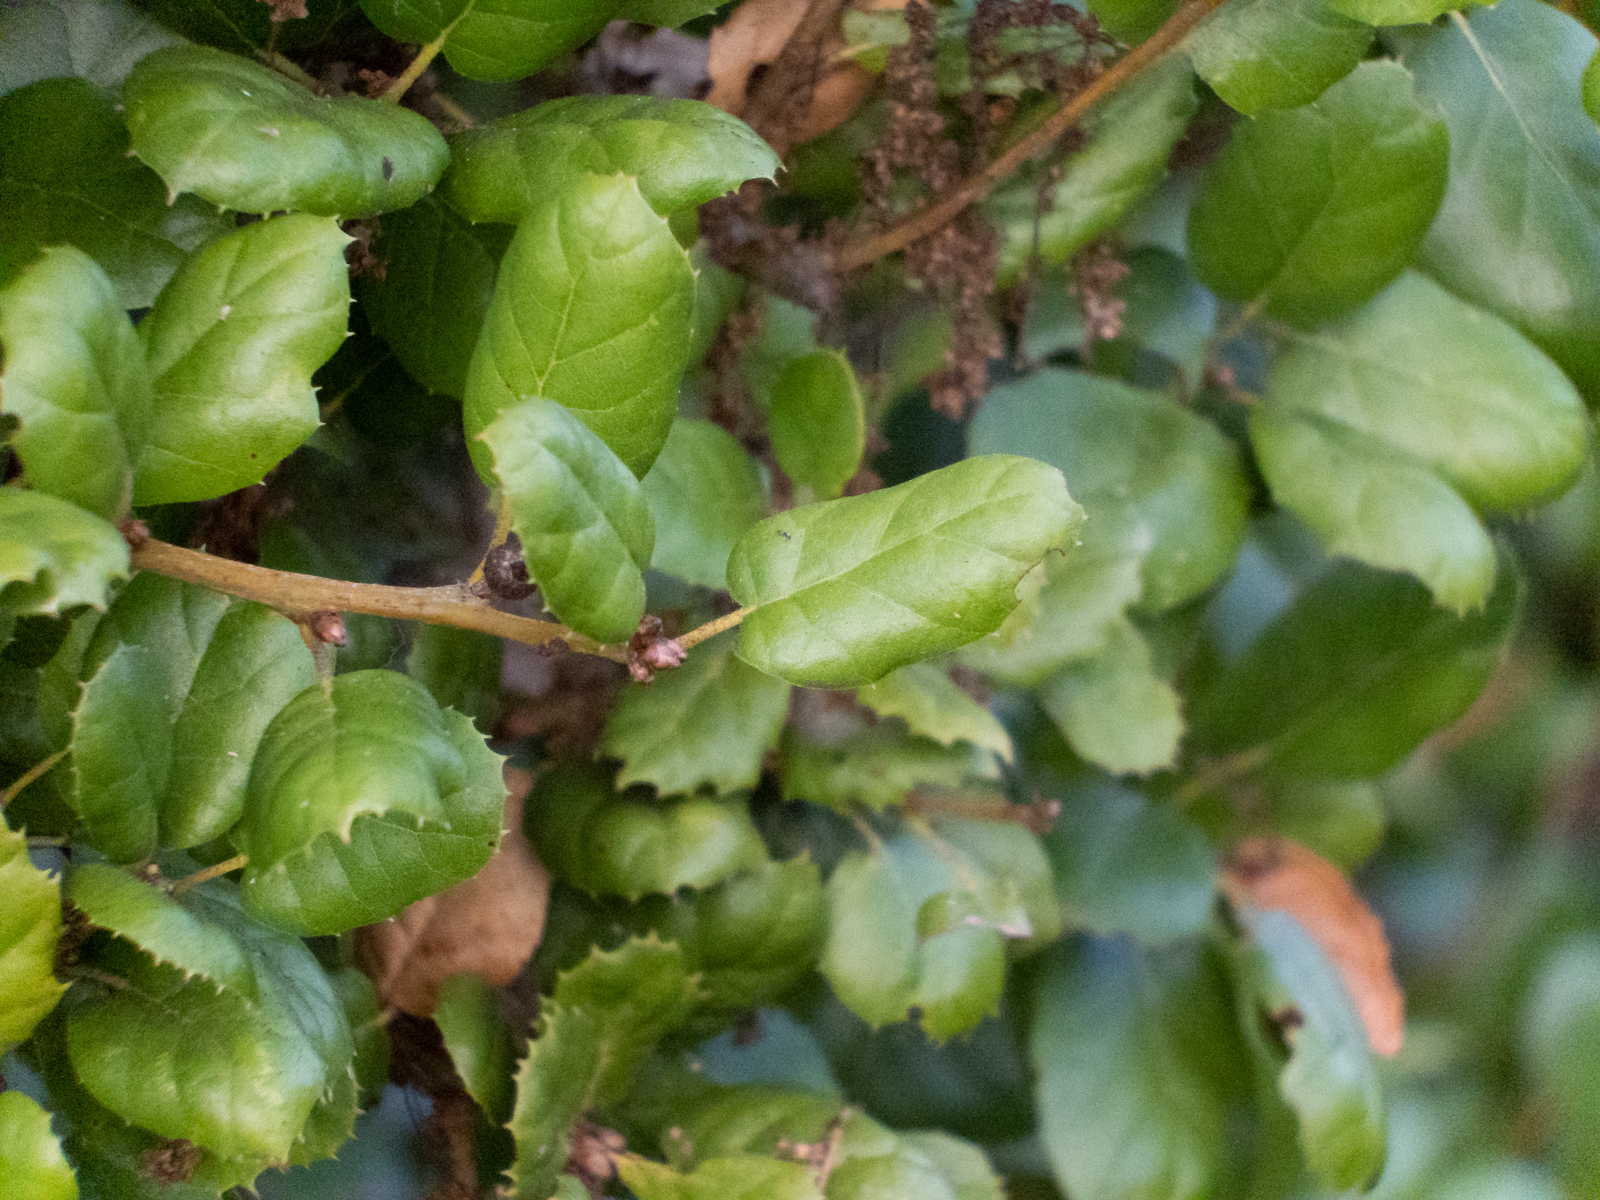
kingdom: Plantae
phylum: Tracheophyta
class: Magnoliopsida
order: Fagales
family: Fagaceae
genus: Quercus
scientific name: Quercus agrifolia
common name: California live oak
